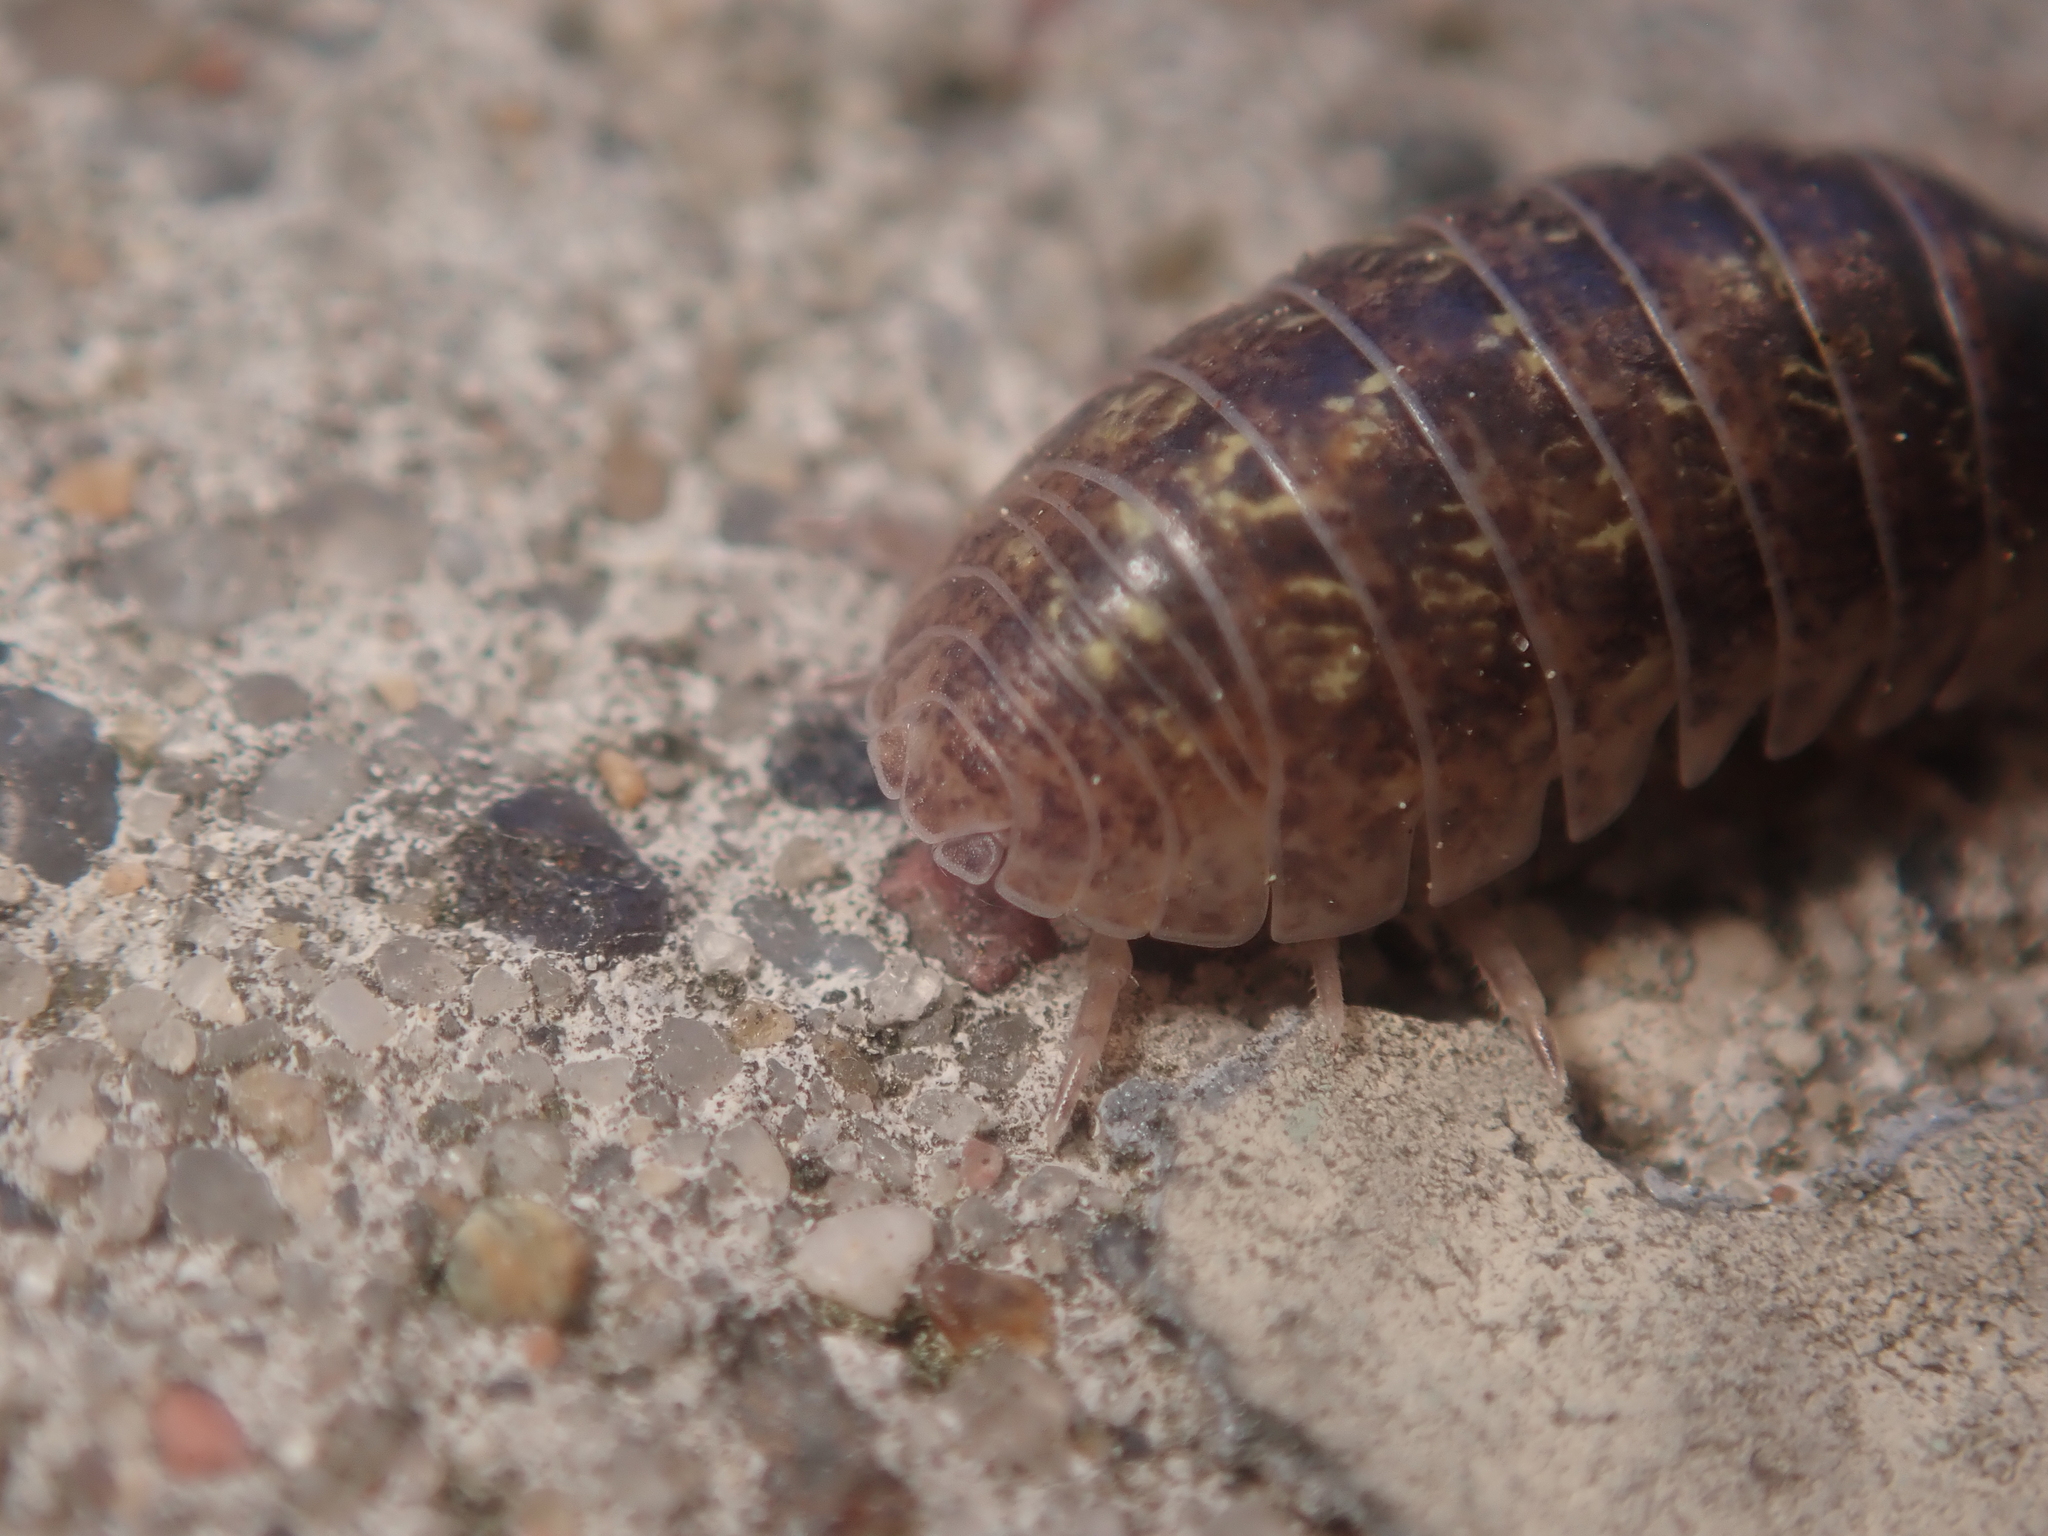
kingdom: Animalia
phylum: Arthropoda
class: Malacostraca
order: Isopoda
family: Armadillidiidae
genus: Armadillidium
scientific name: Armadillidium vulgare
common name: Common pill woodlouse
